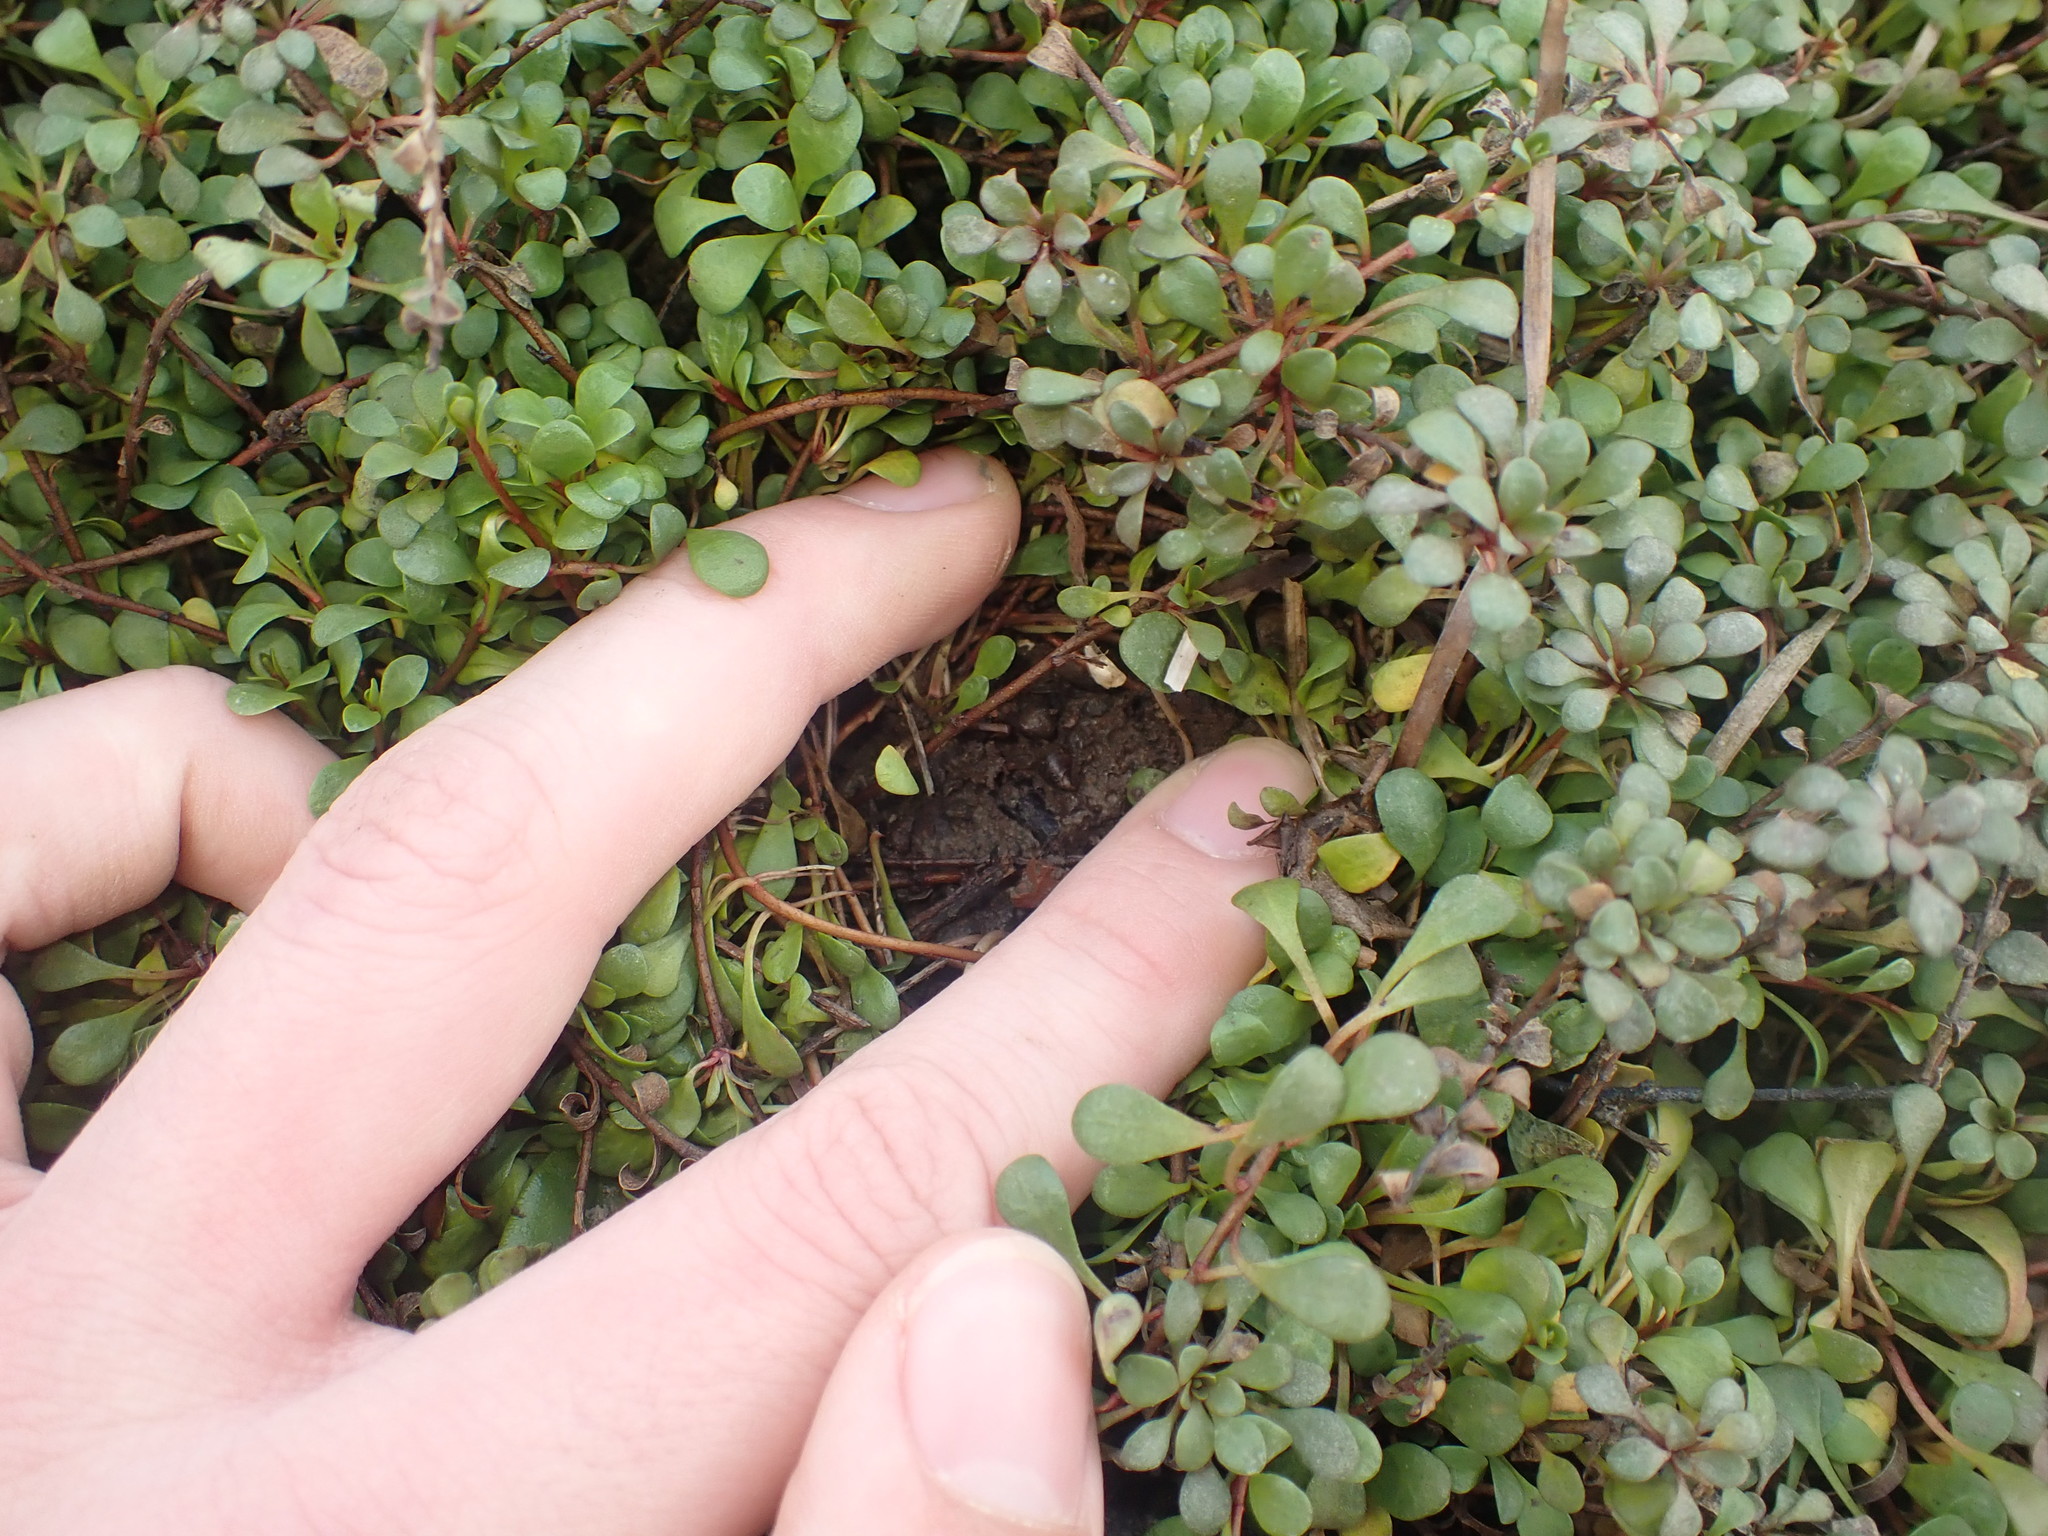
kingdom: Animalia
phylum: Mollusca
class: Gastropoda
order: Ellobiida
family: Ellobiidae
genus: Pleuroloba
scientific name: Pleuroloba costellaris
